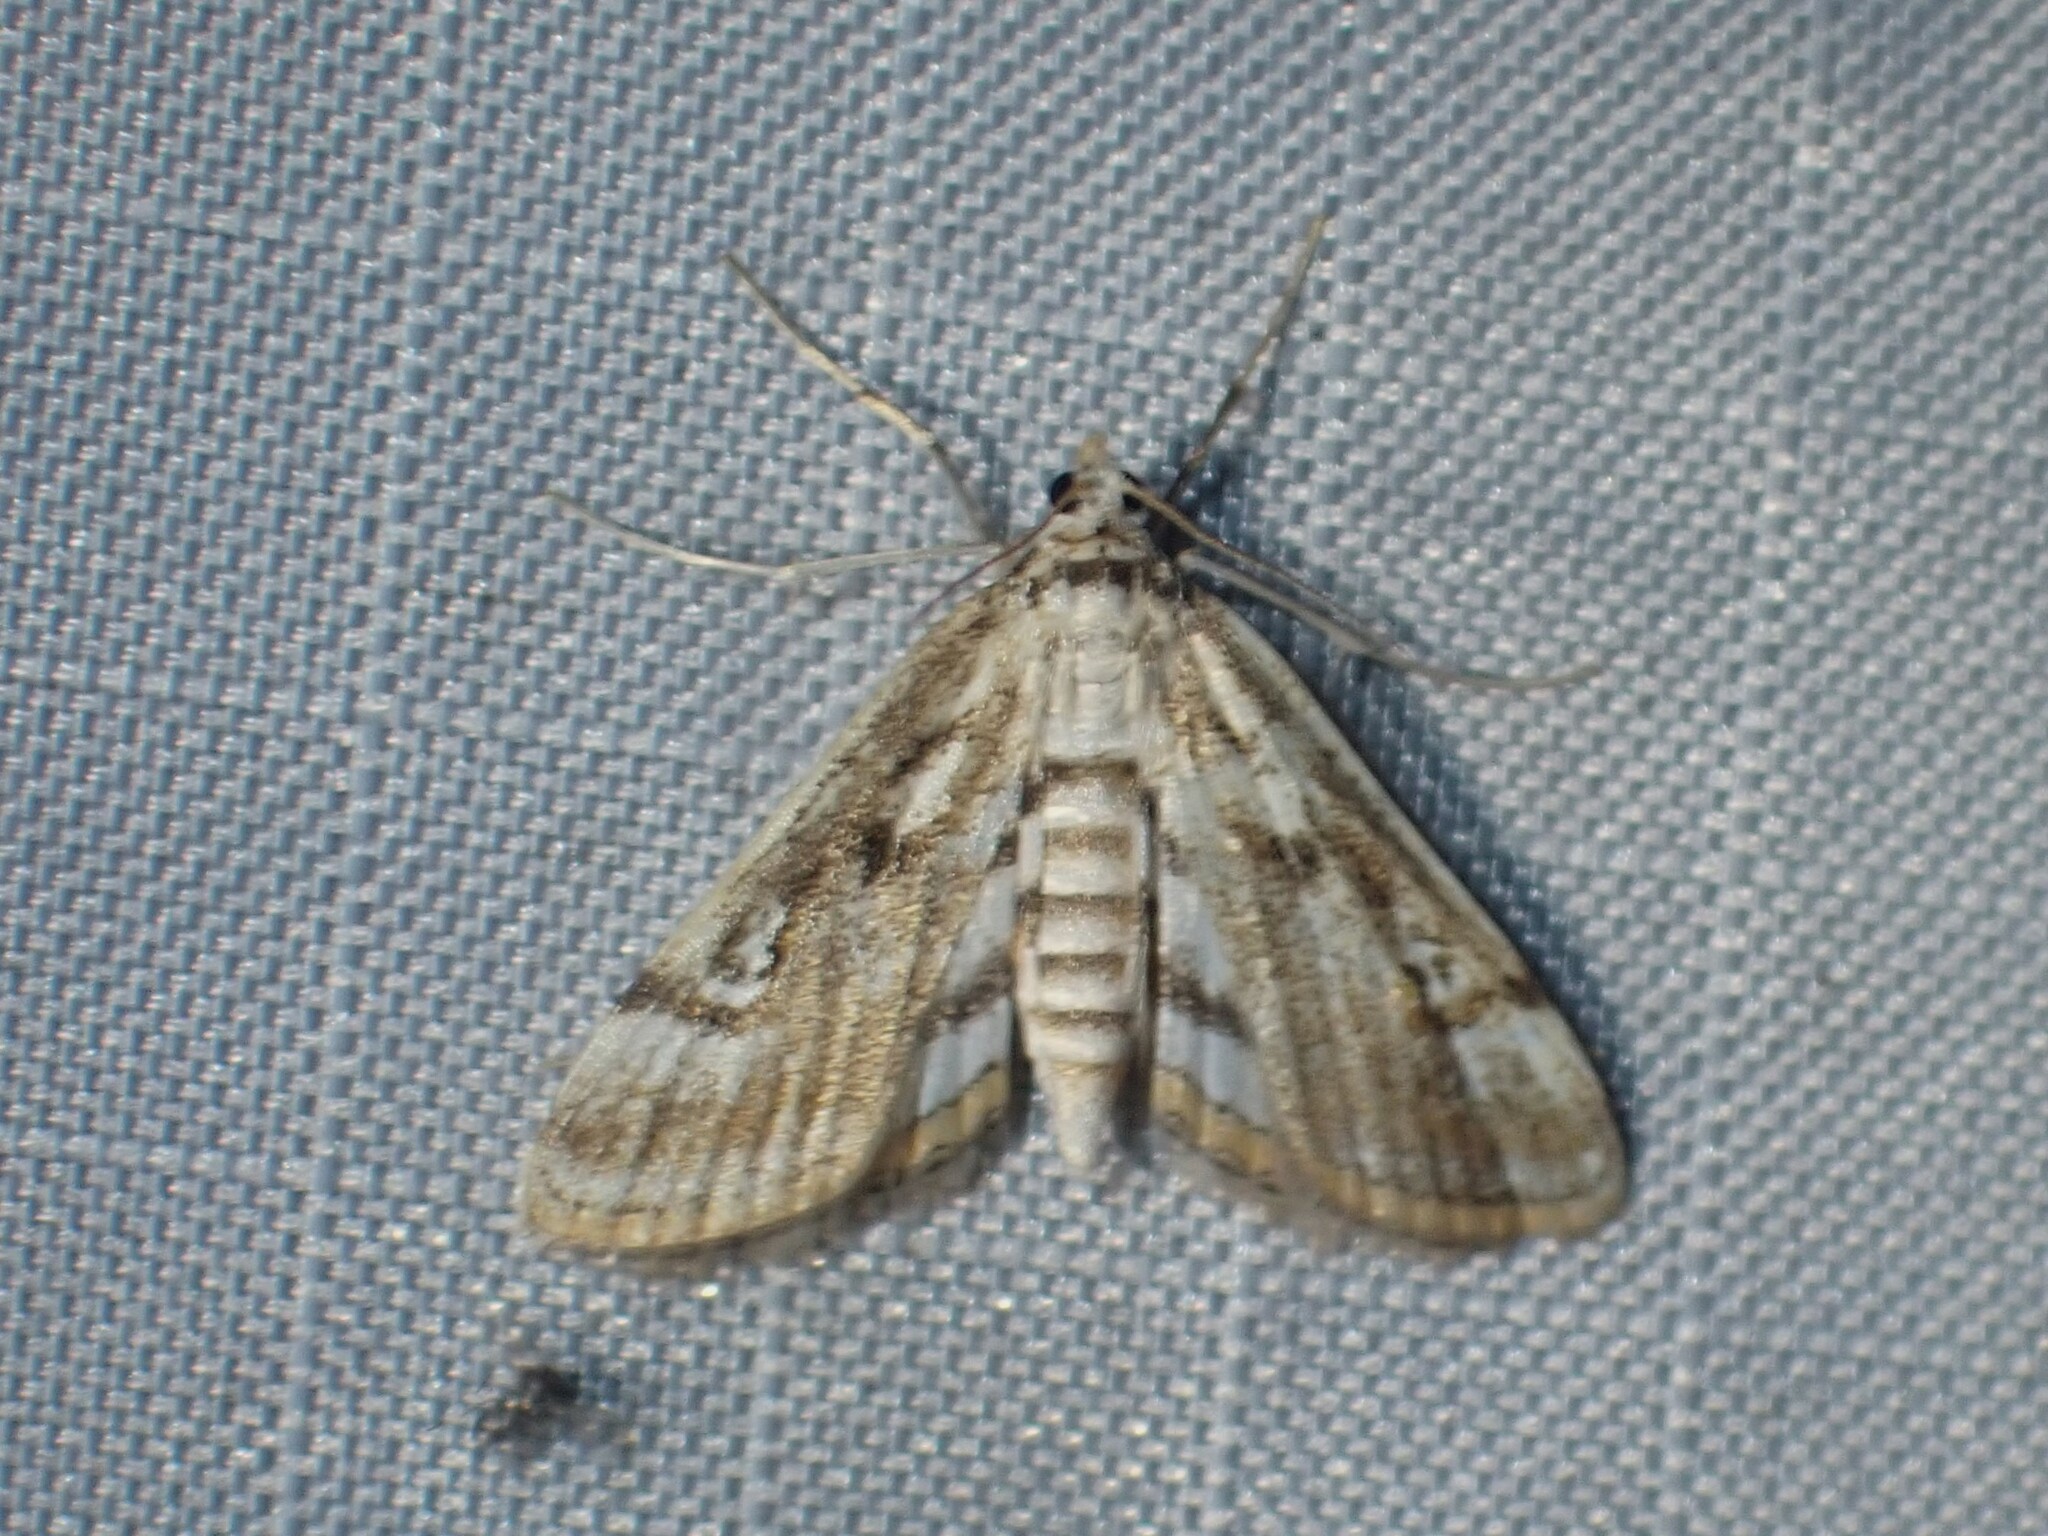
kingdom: Animalia
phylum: Arthropoda
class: Insecta
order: Lepidoptera
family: Crambidae
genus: Parapoynx
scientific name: Parapoynx badiusalis
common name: Chestnut-marked pondweed moth
